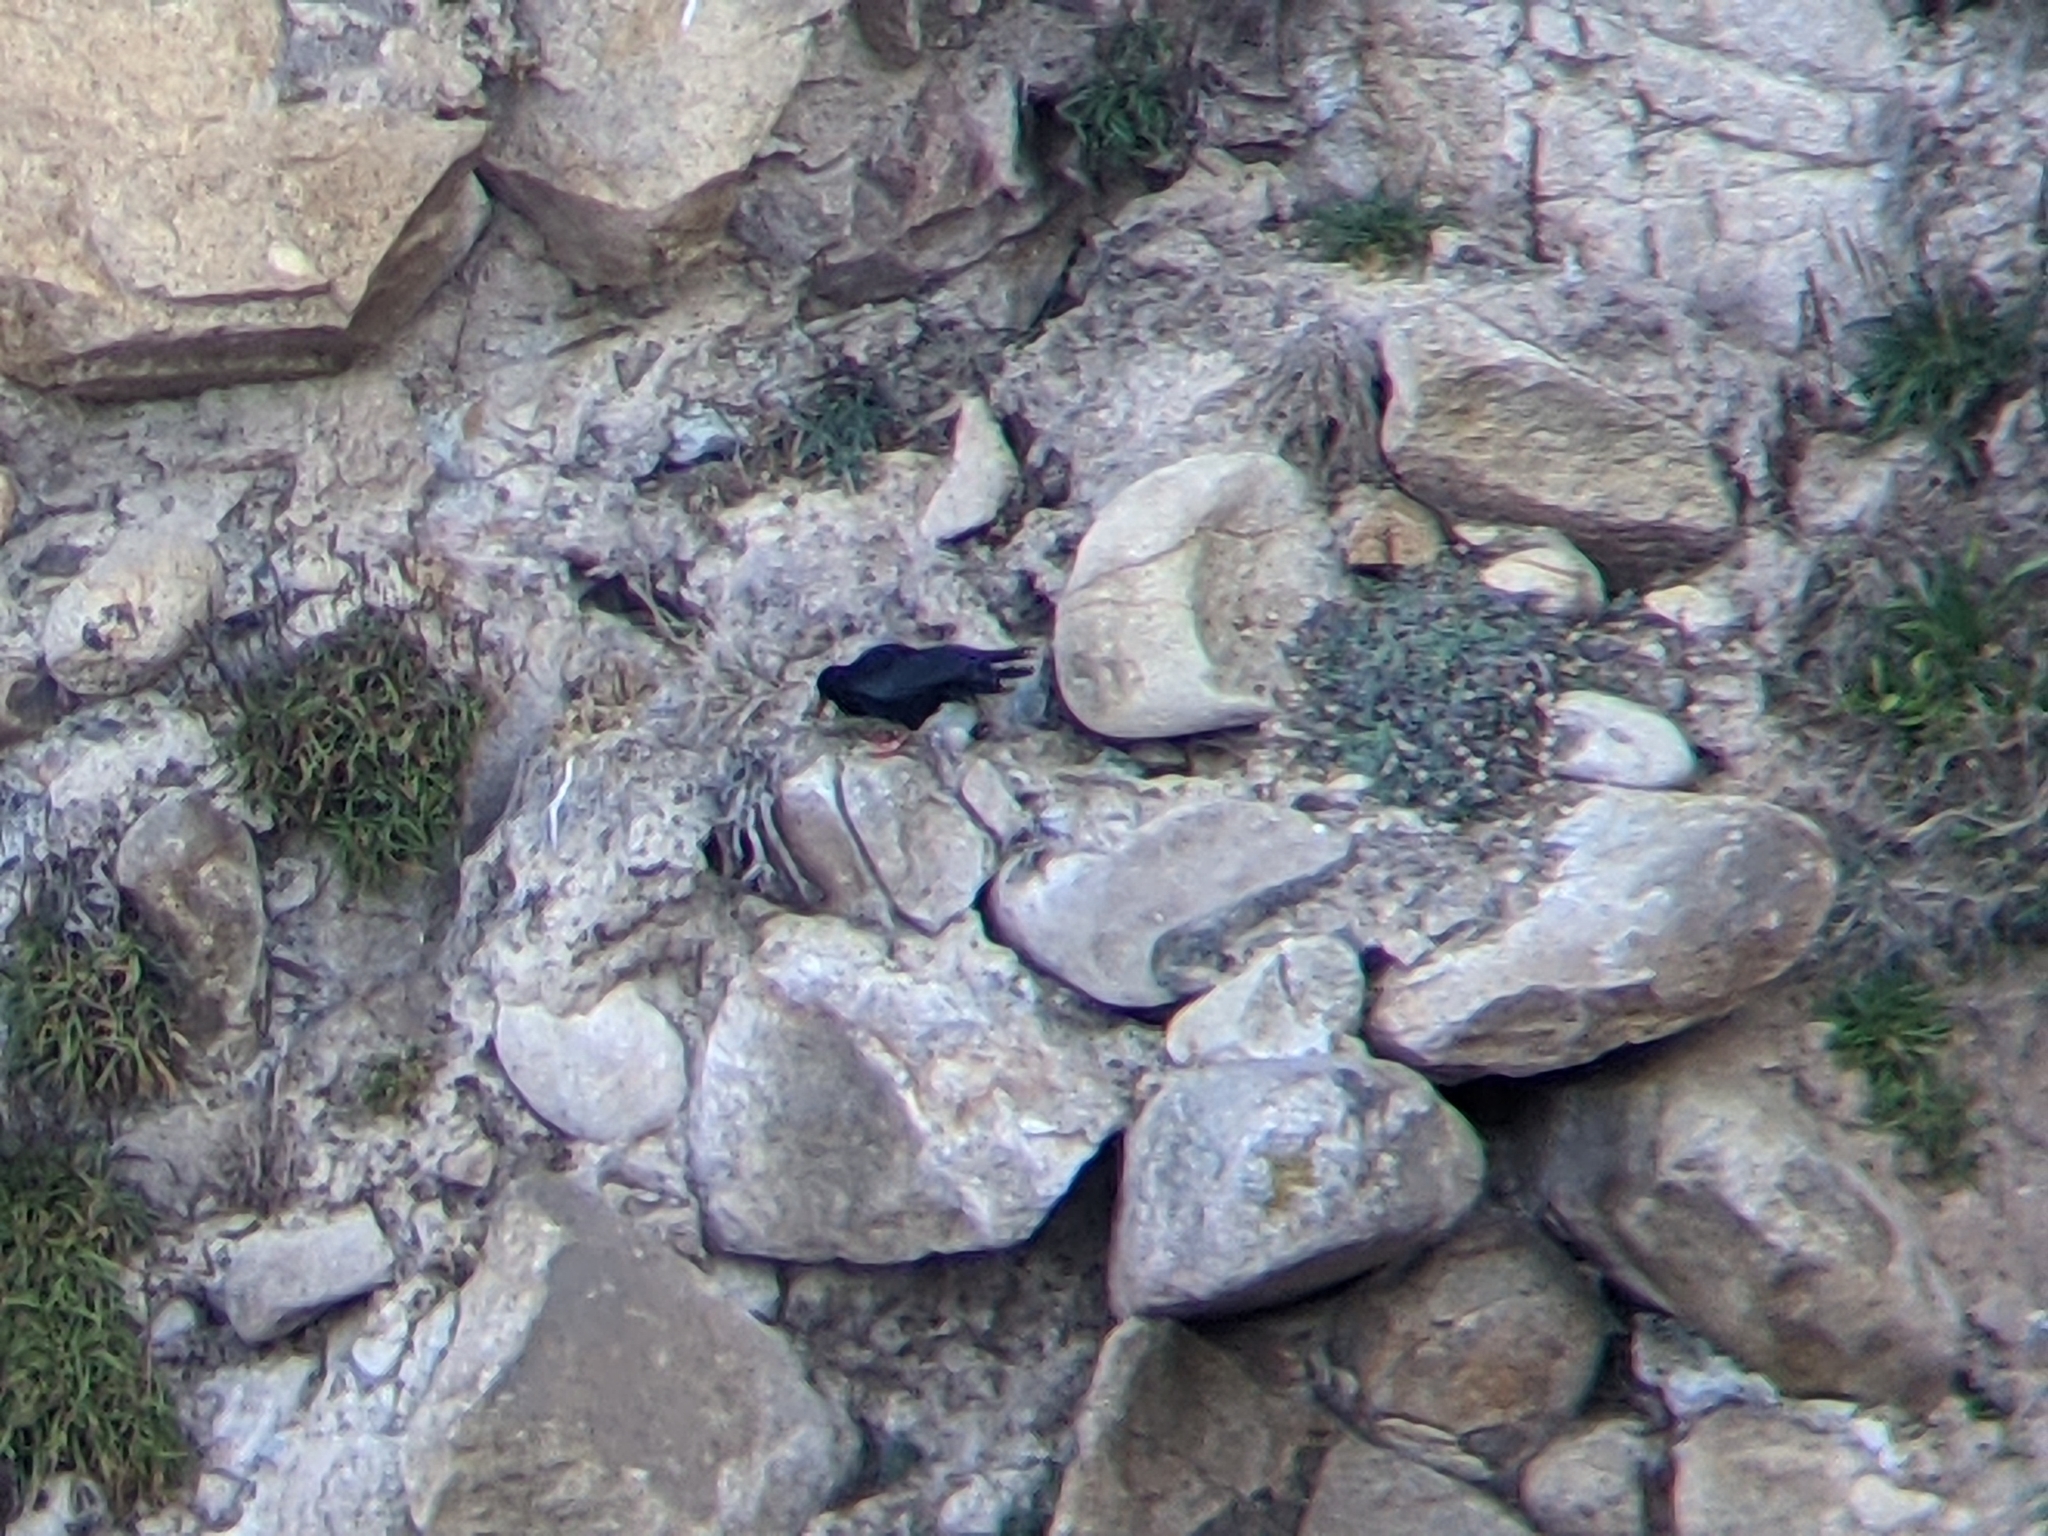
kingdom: Animalia
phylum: Chordata
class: Aves
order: Passeriformes
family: Corvidae
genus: Pyrrhocorax
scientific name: Pyrrhocorax pyrrhocorax
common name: Red-billed chough
